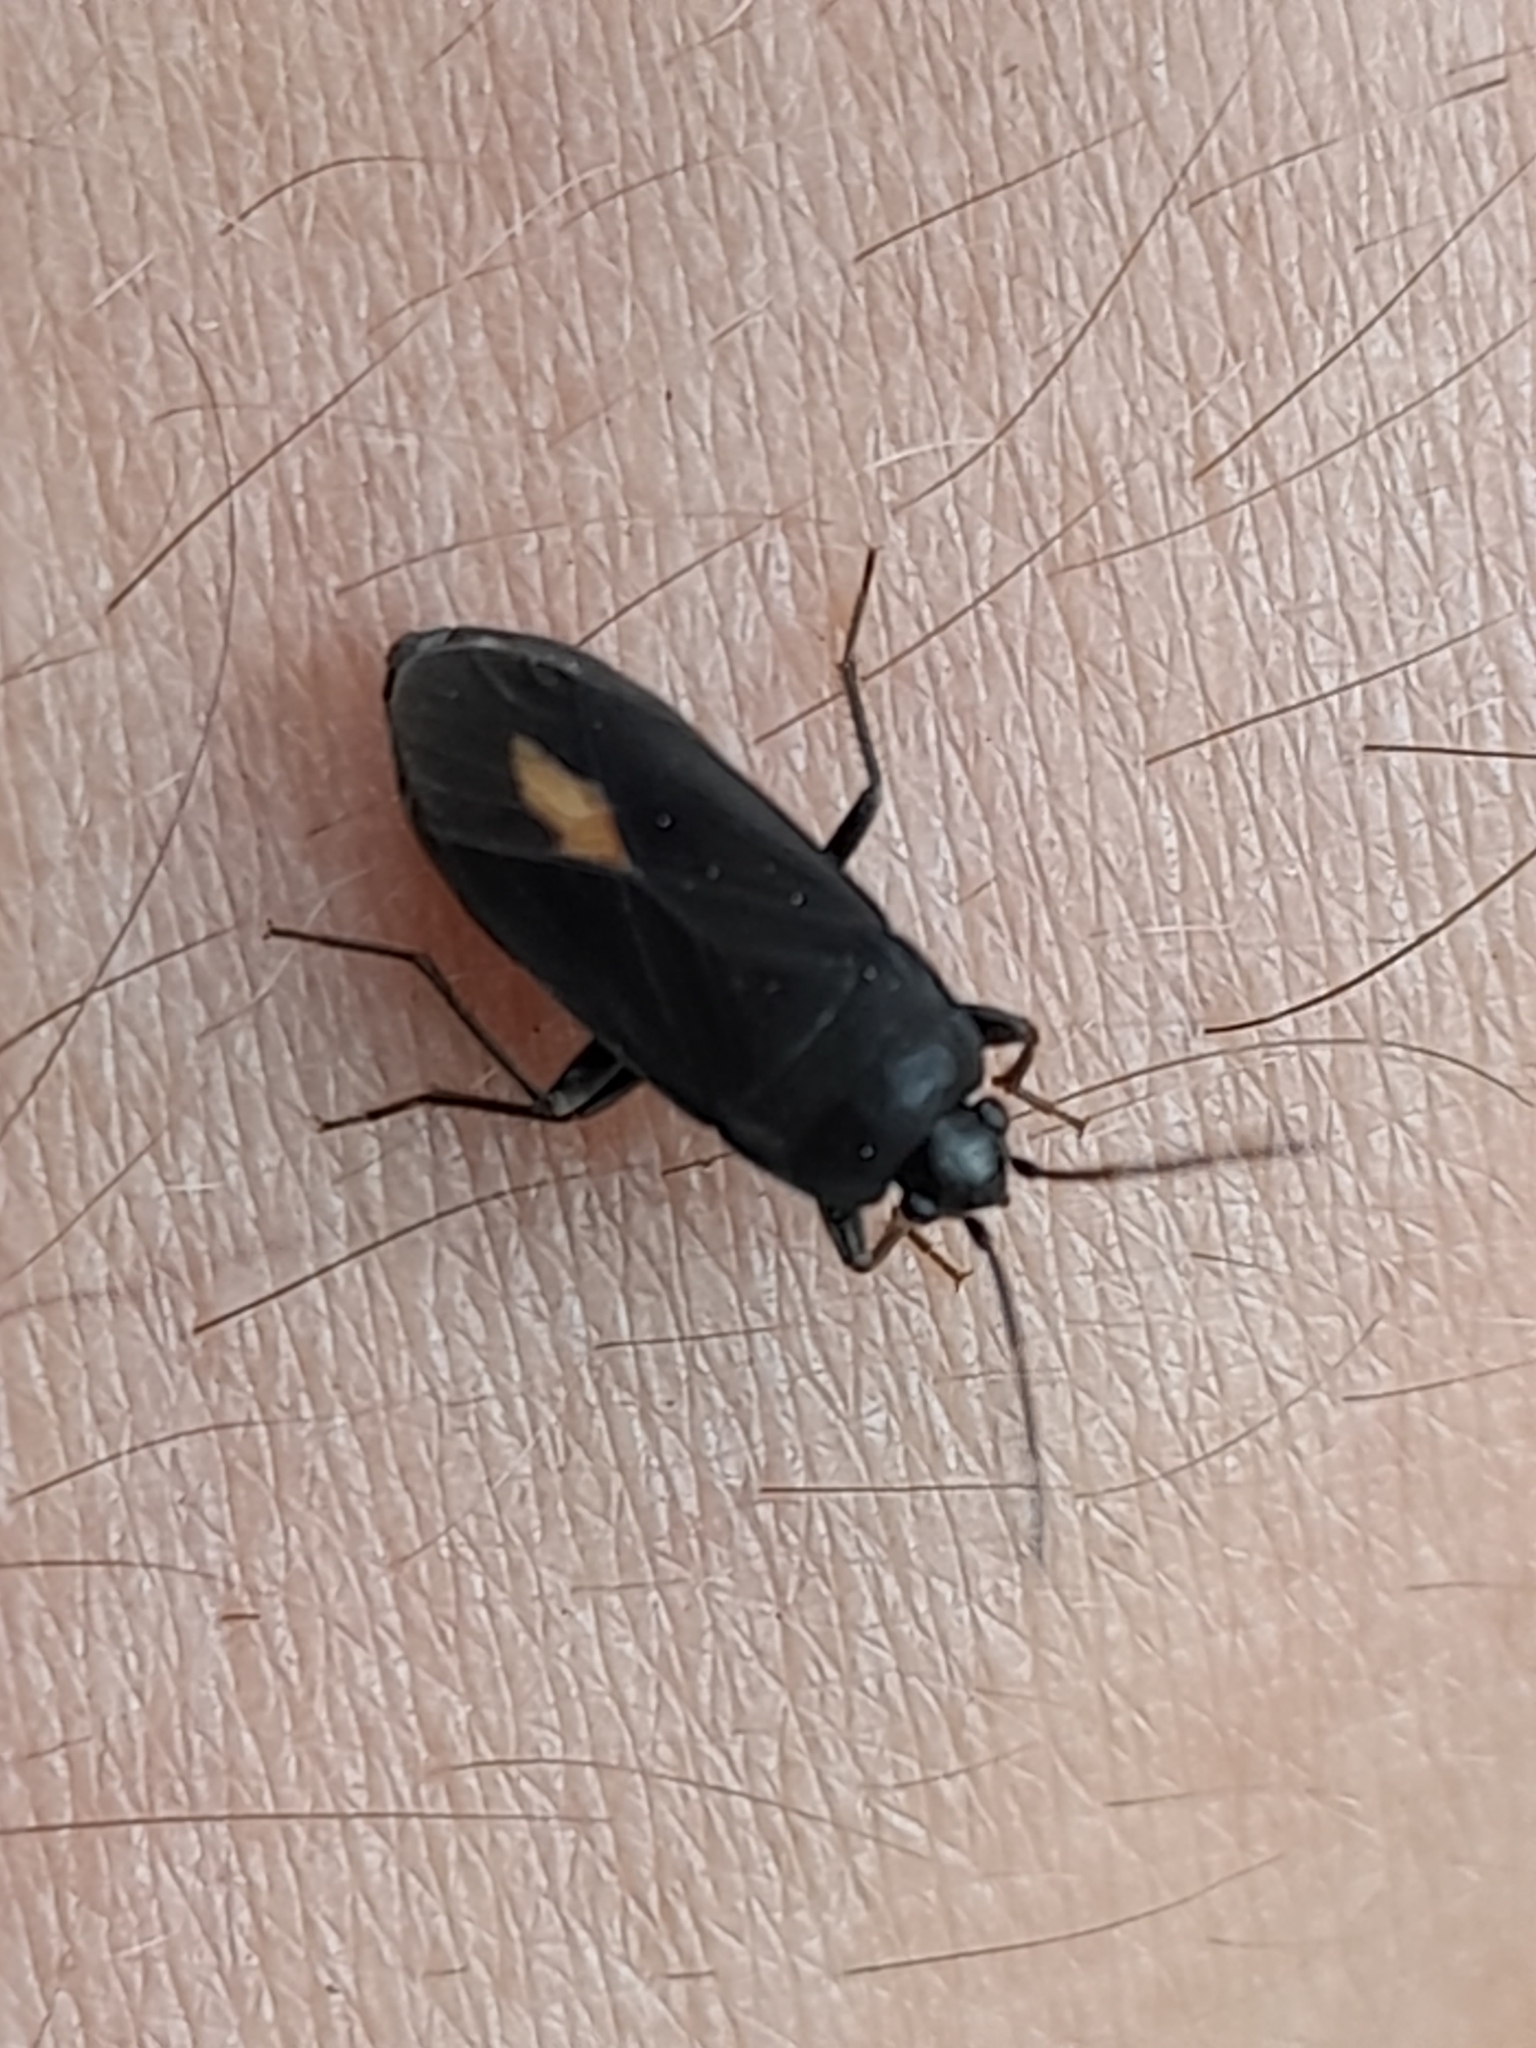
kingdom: Animalia
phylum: Arthropoda
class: Insecta
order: Hemiptera
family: Rhyparochromidae
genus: Aphanus
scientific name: Aphanus rolandri
